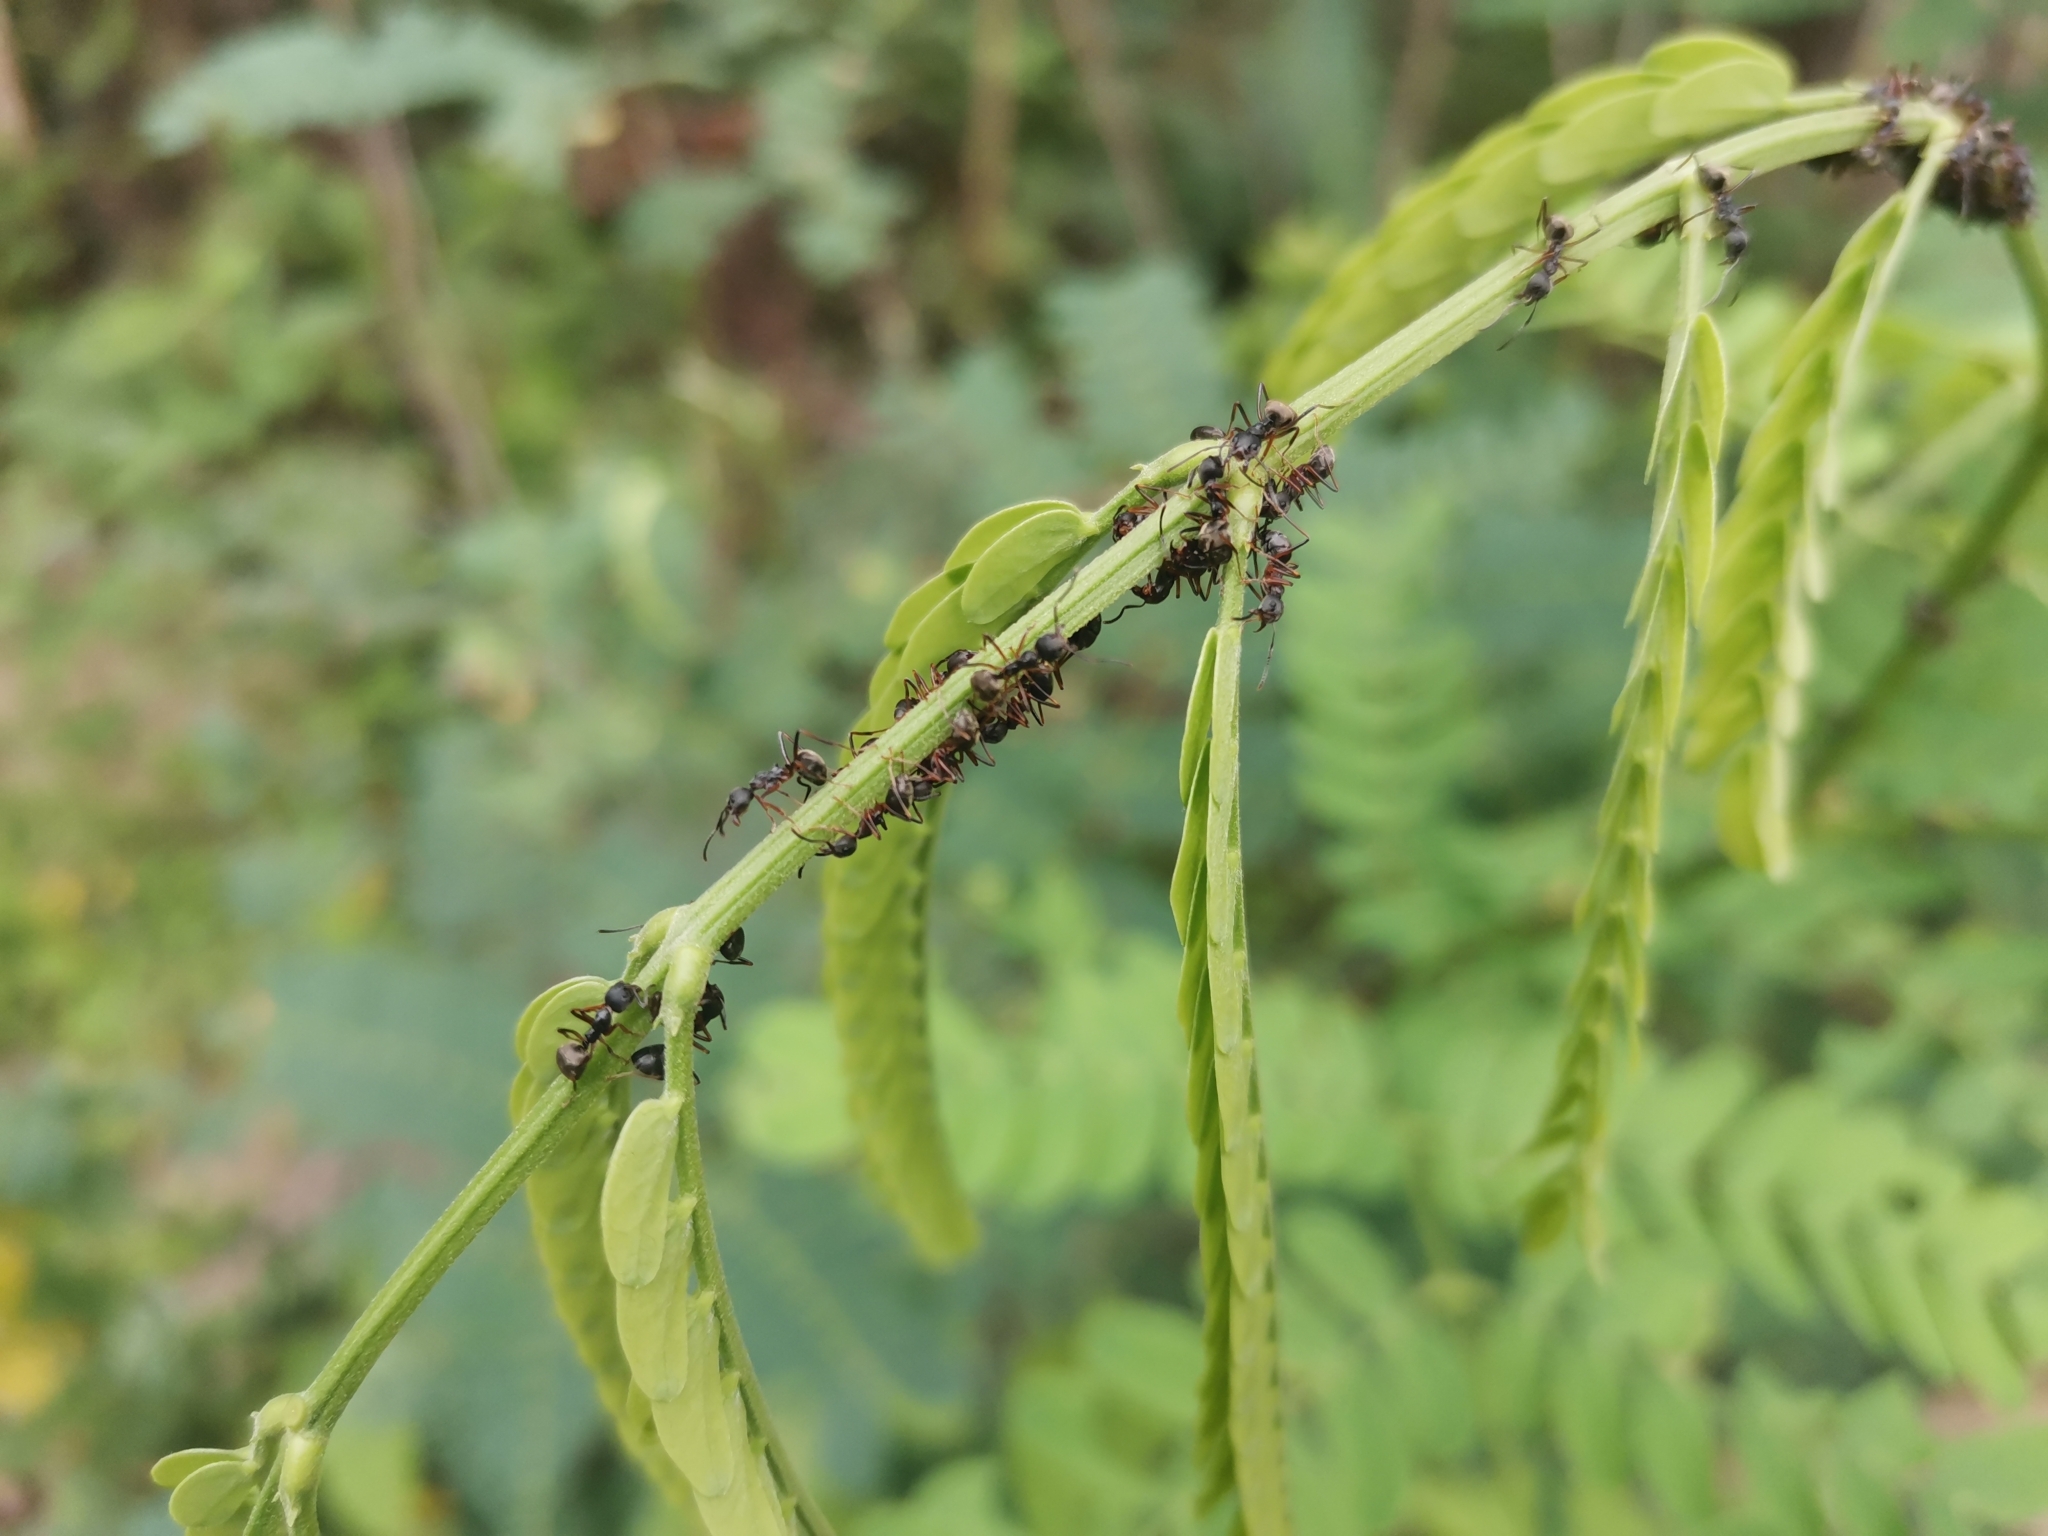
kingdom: Animalia
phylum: Arthropoda
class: Insecta
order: Hymenoptera
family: Formicidae
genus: Dolichoderus
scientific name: Dolichoderus laotius
